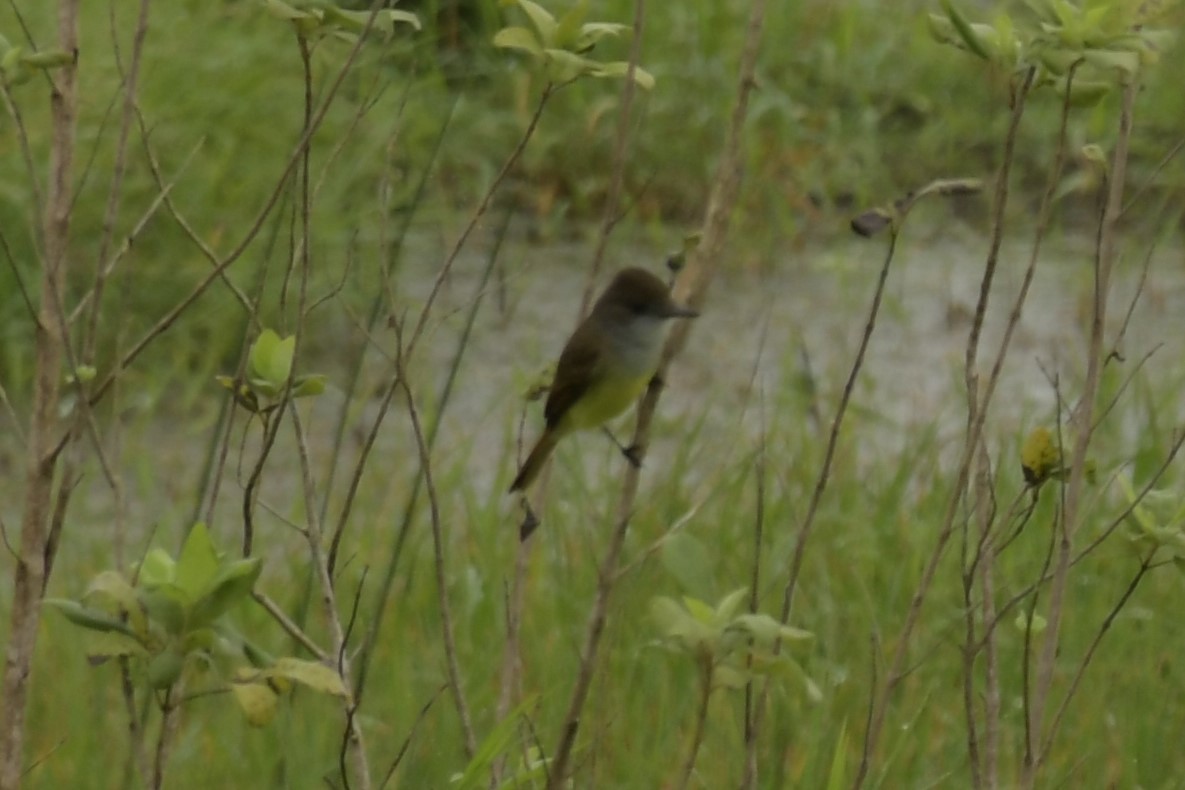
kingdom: Animalia
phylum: Chordata
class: Aves
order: Passeriformes
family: Tyrannidae
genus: Myiarchus
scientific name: Myiarchus tuberculifer
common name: Dusky-capped flycatcher
